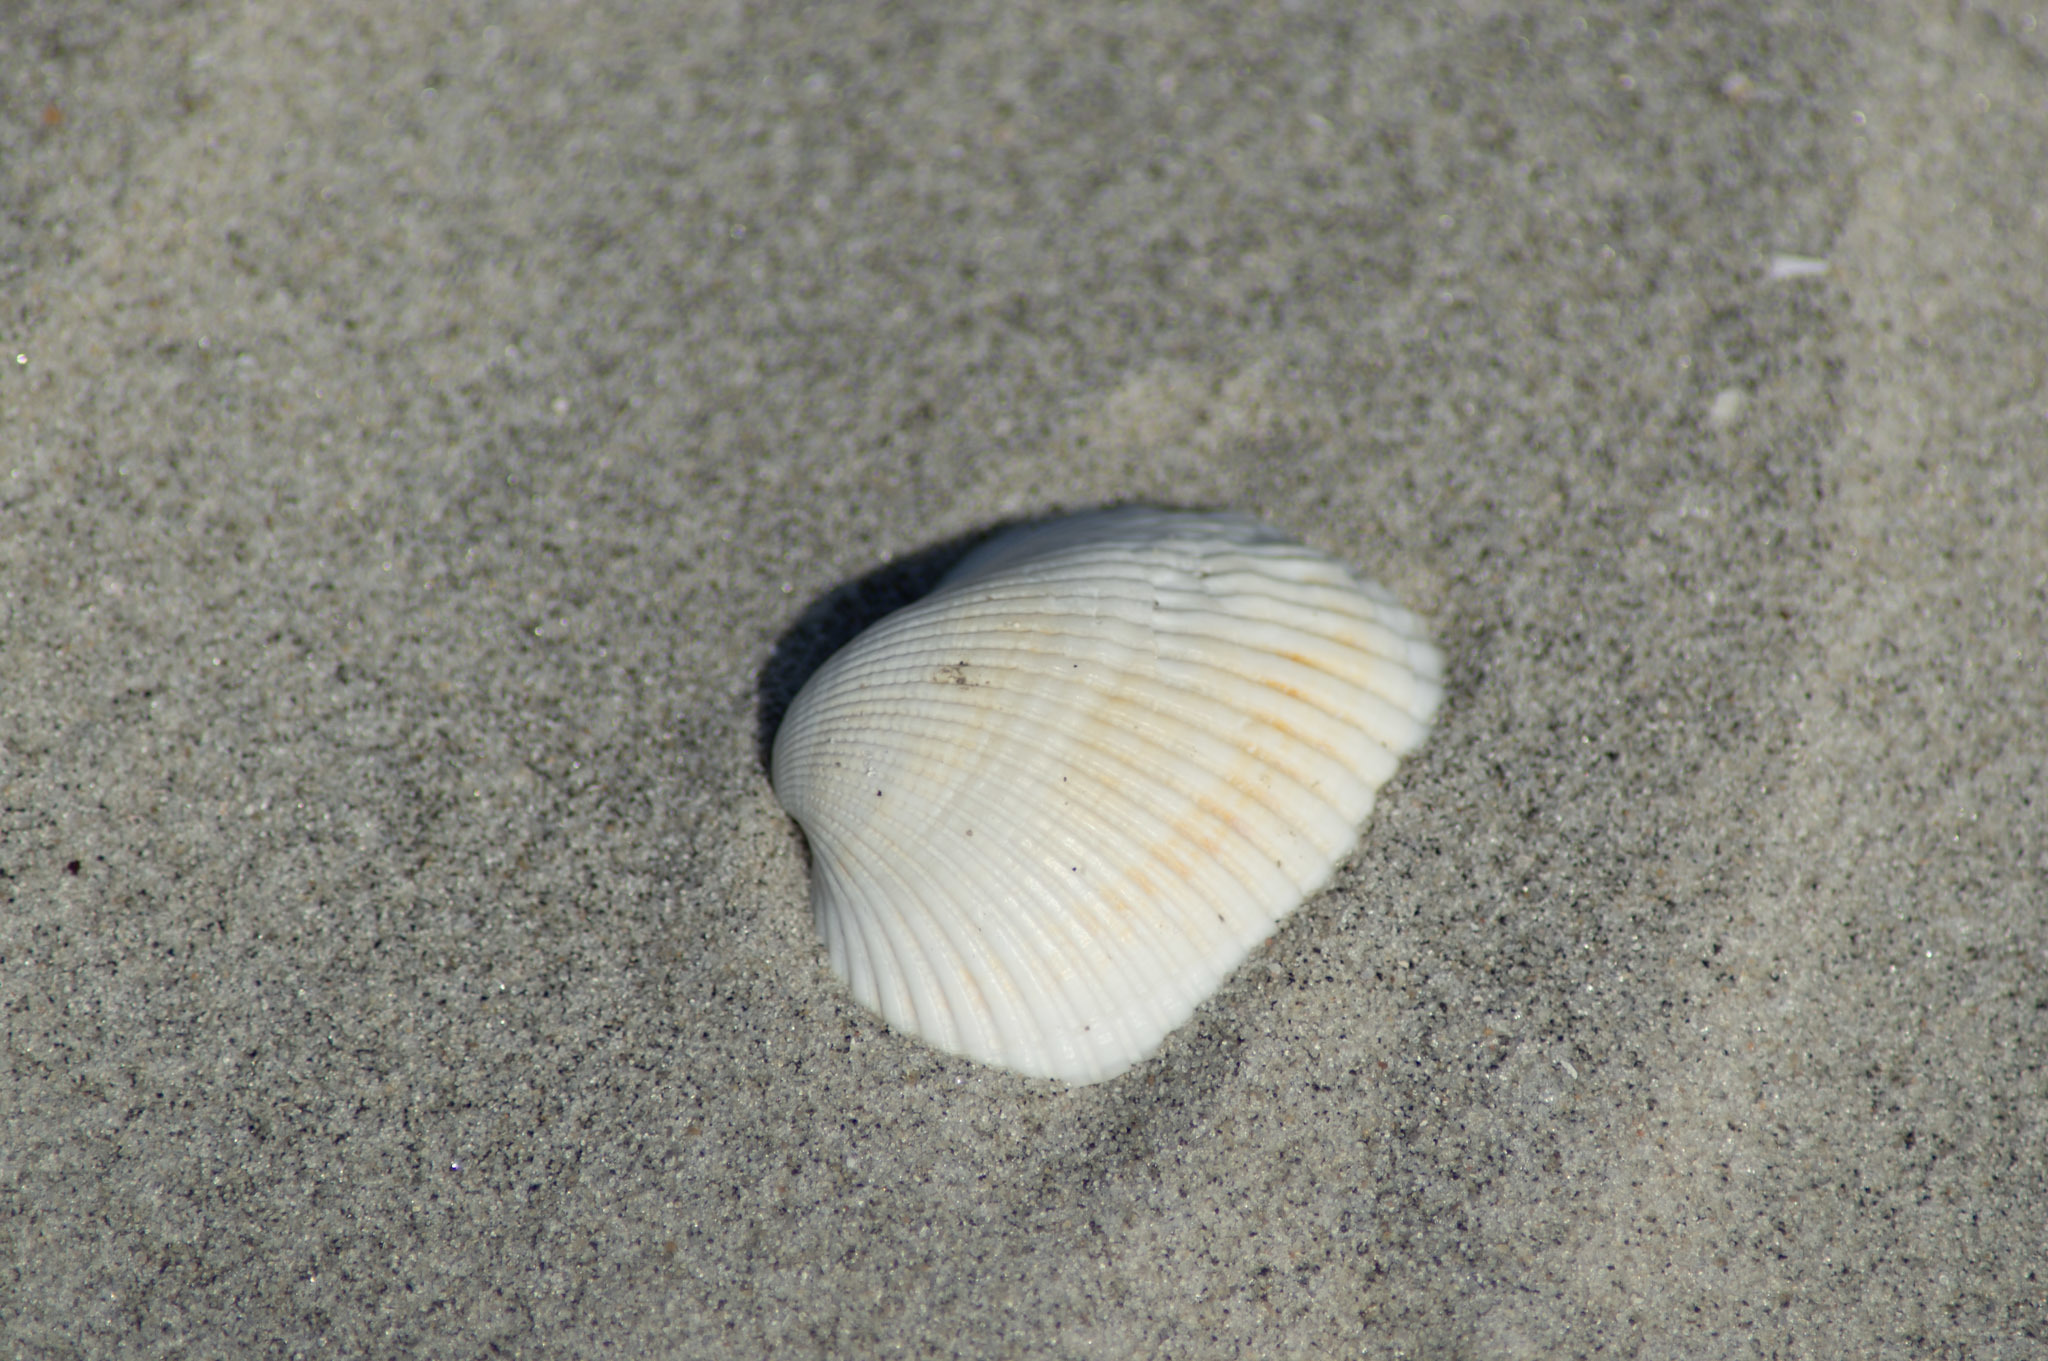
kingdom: Animalia
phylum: Mollusca
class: Bivalvia
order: Arcida
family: Arcidae
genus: Lunarca
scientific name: Lunarca ovalis
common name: Blood ark
